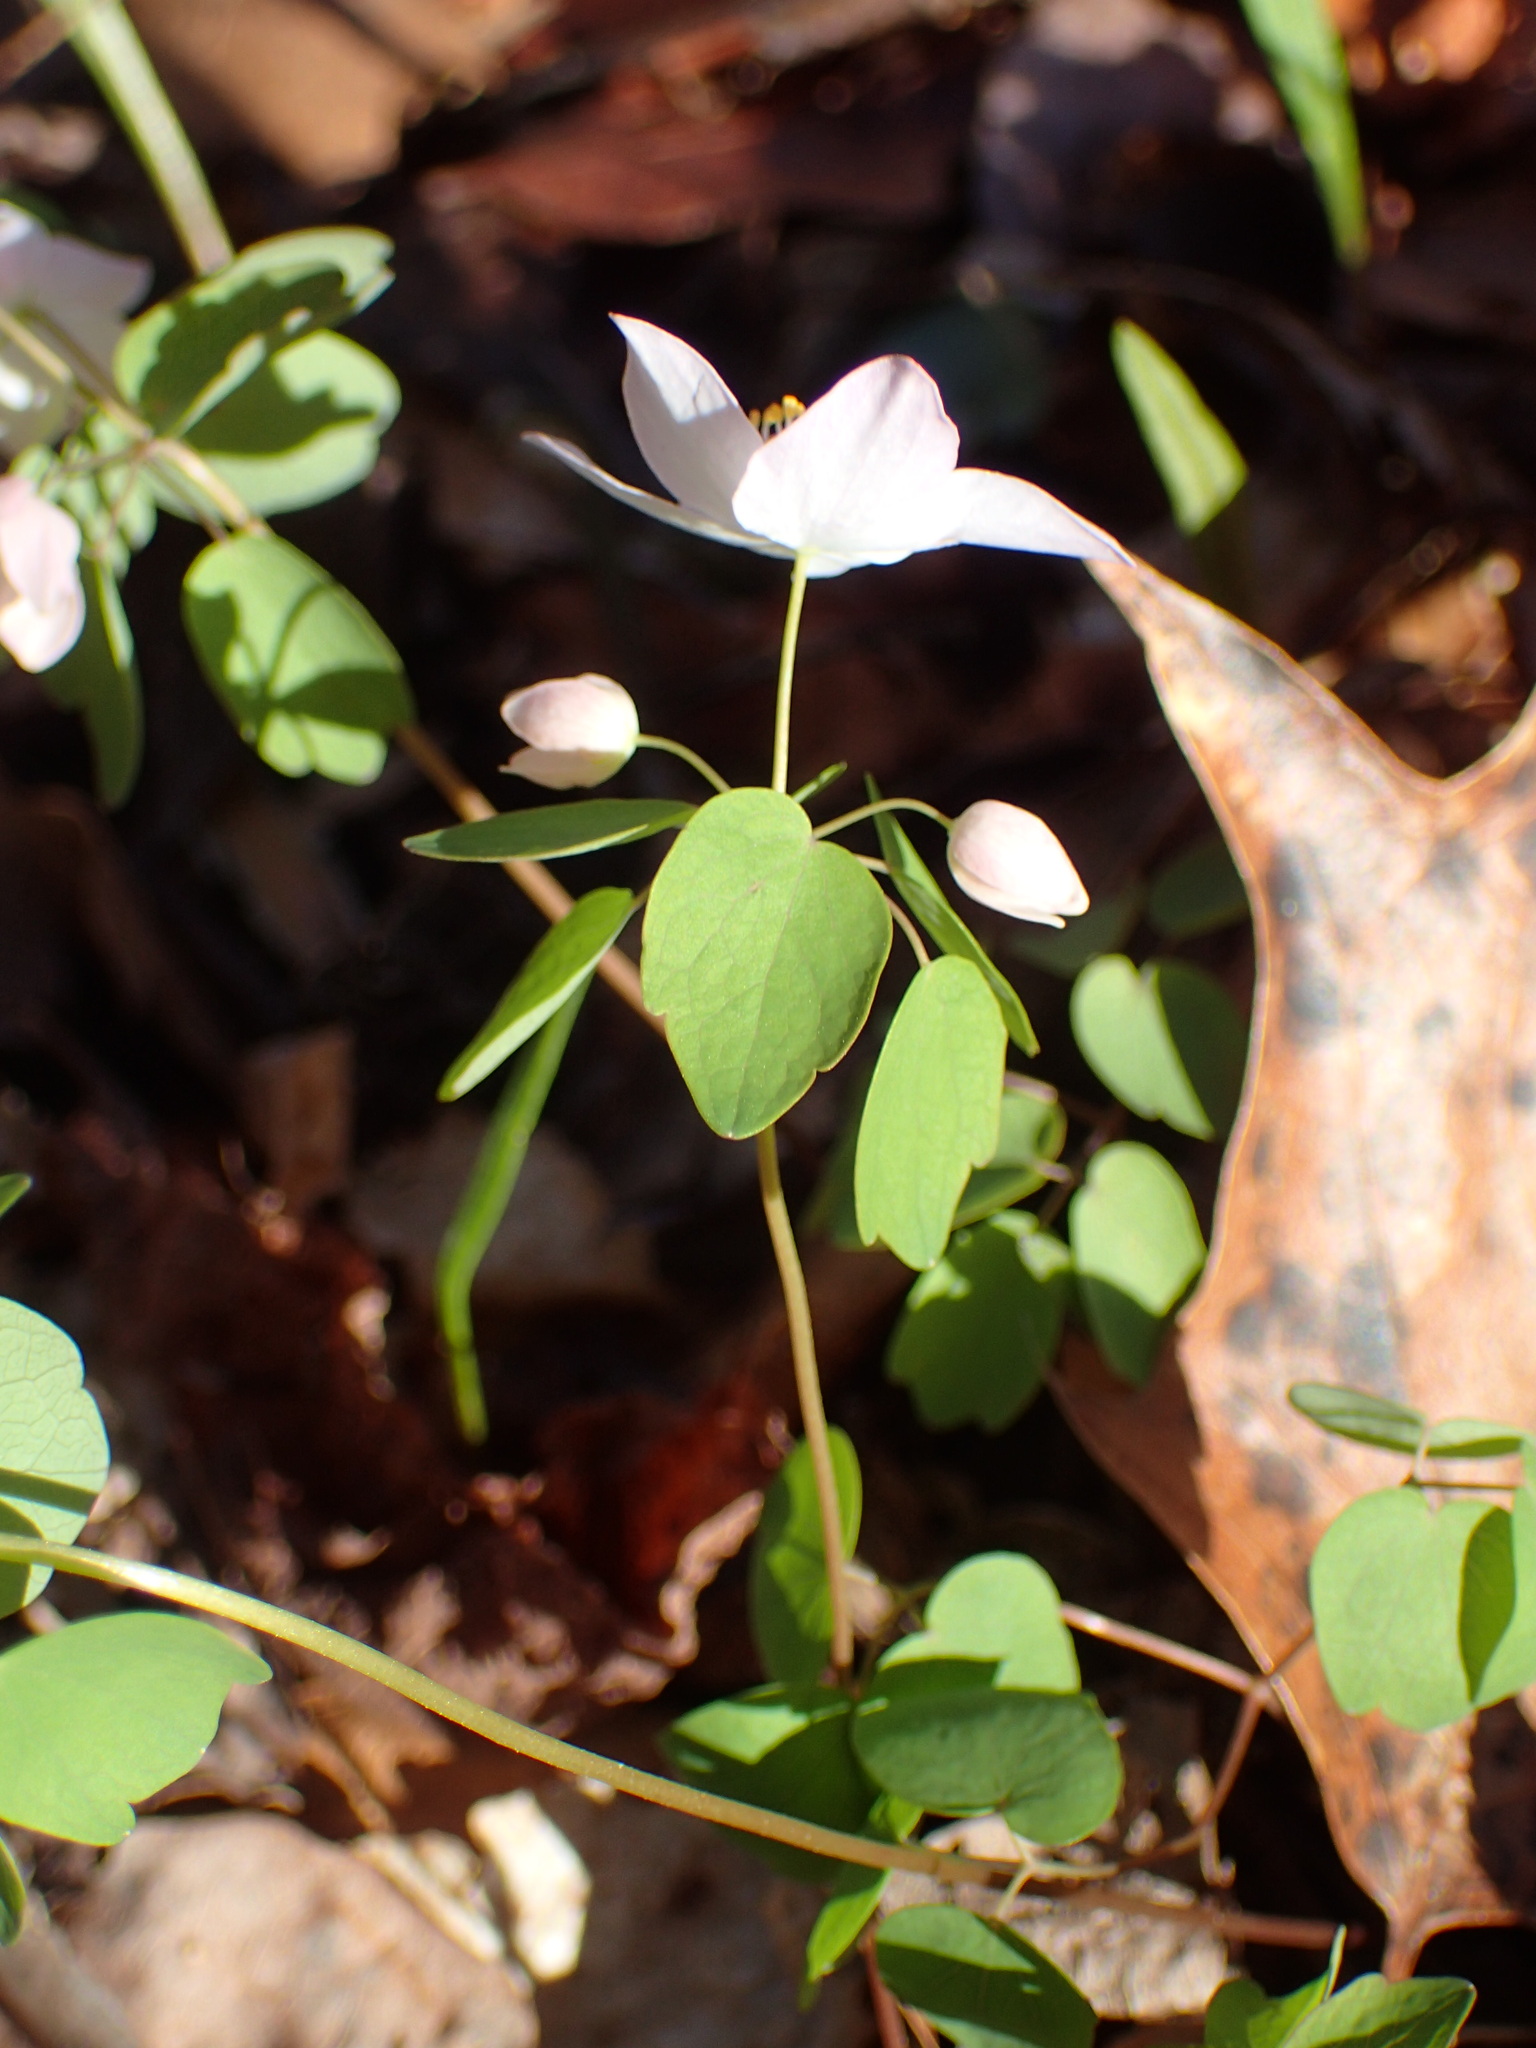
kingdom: Plantae
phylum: Tracheophyta
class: Magnoliopsida
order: Ranunculales
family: Ranunculaceae
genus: Thalictrum
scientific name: Thalictrum thalictroides
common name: Rue-anemone
